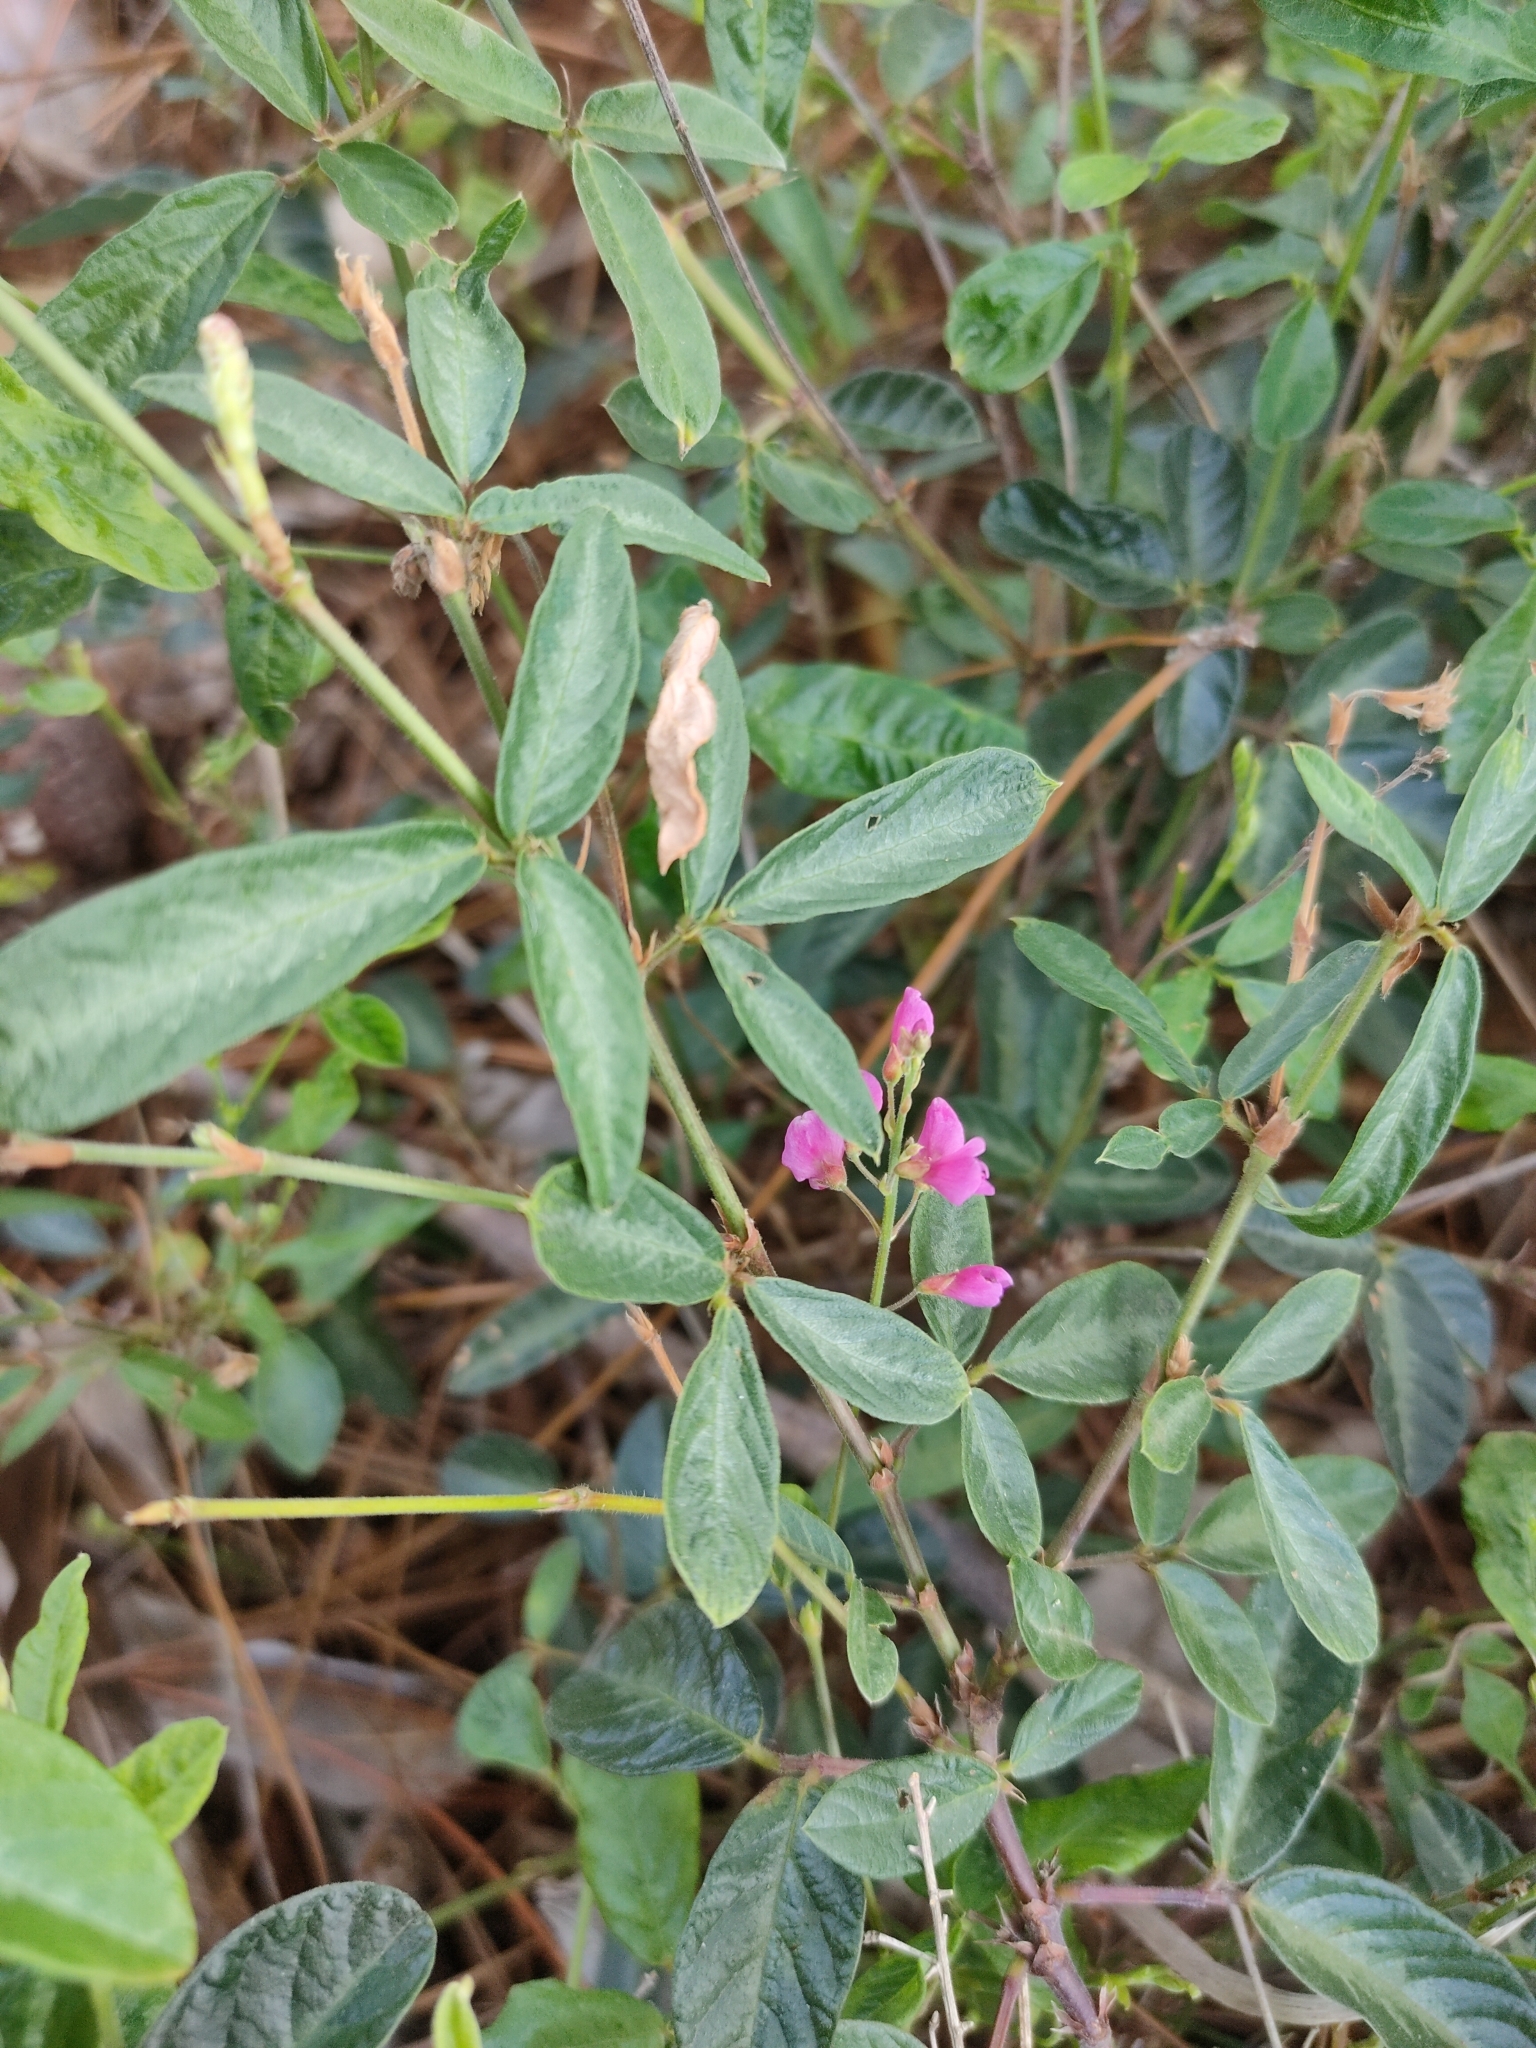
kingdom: Plantae
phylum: Tracheophyta
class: Magnoliopsida
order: Fabales
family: Fabaceae
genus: Desmodium
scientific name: Desmodium incanum
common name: Tickclover
